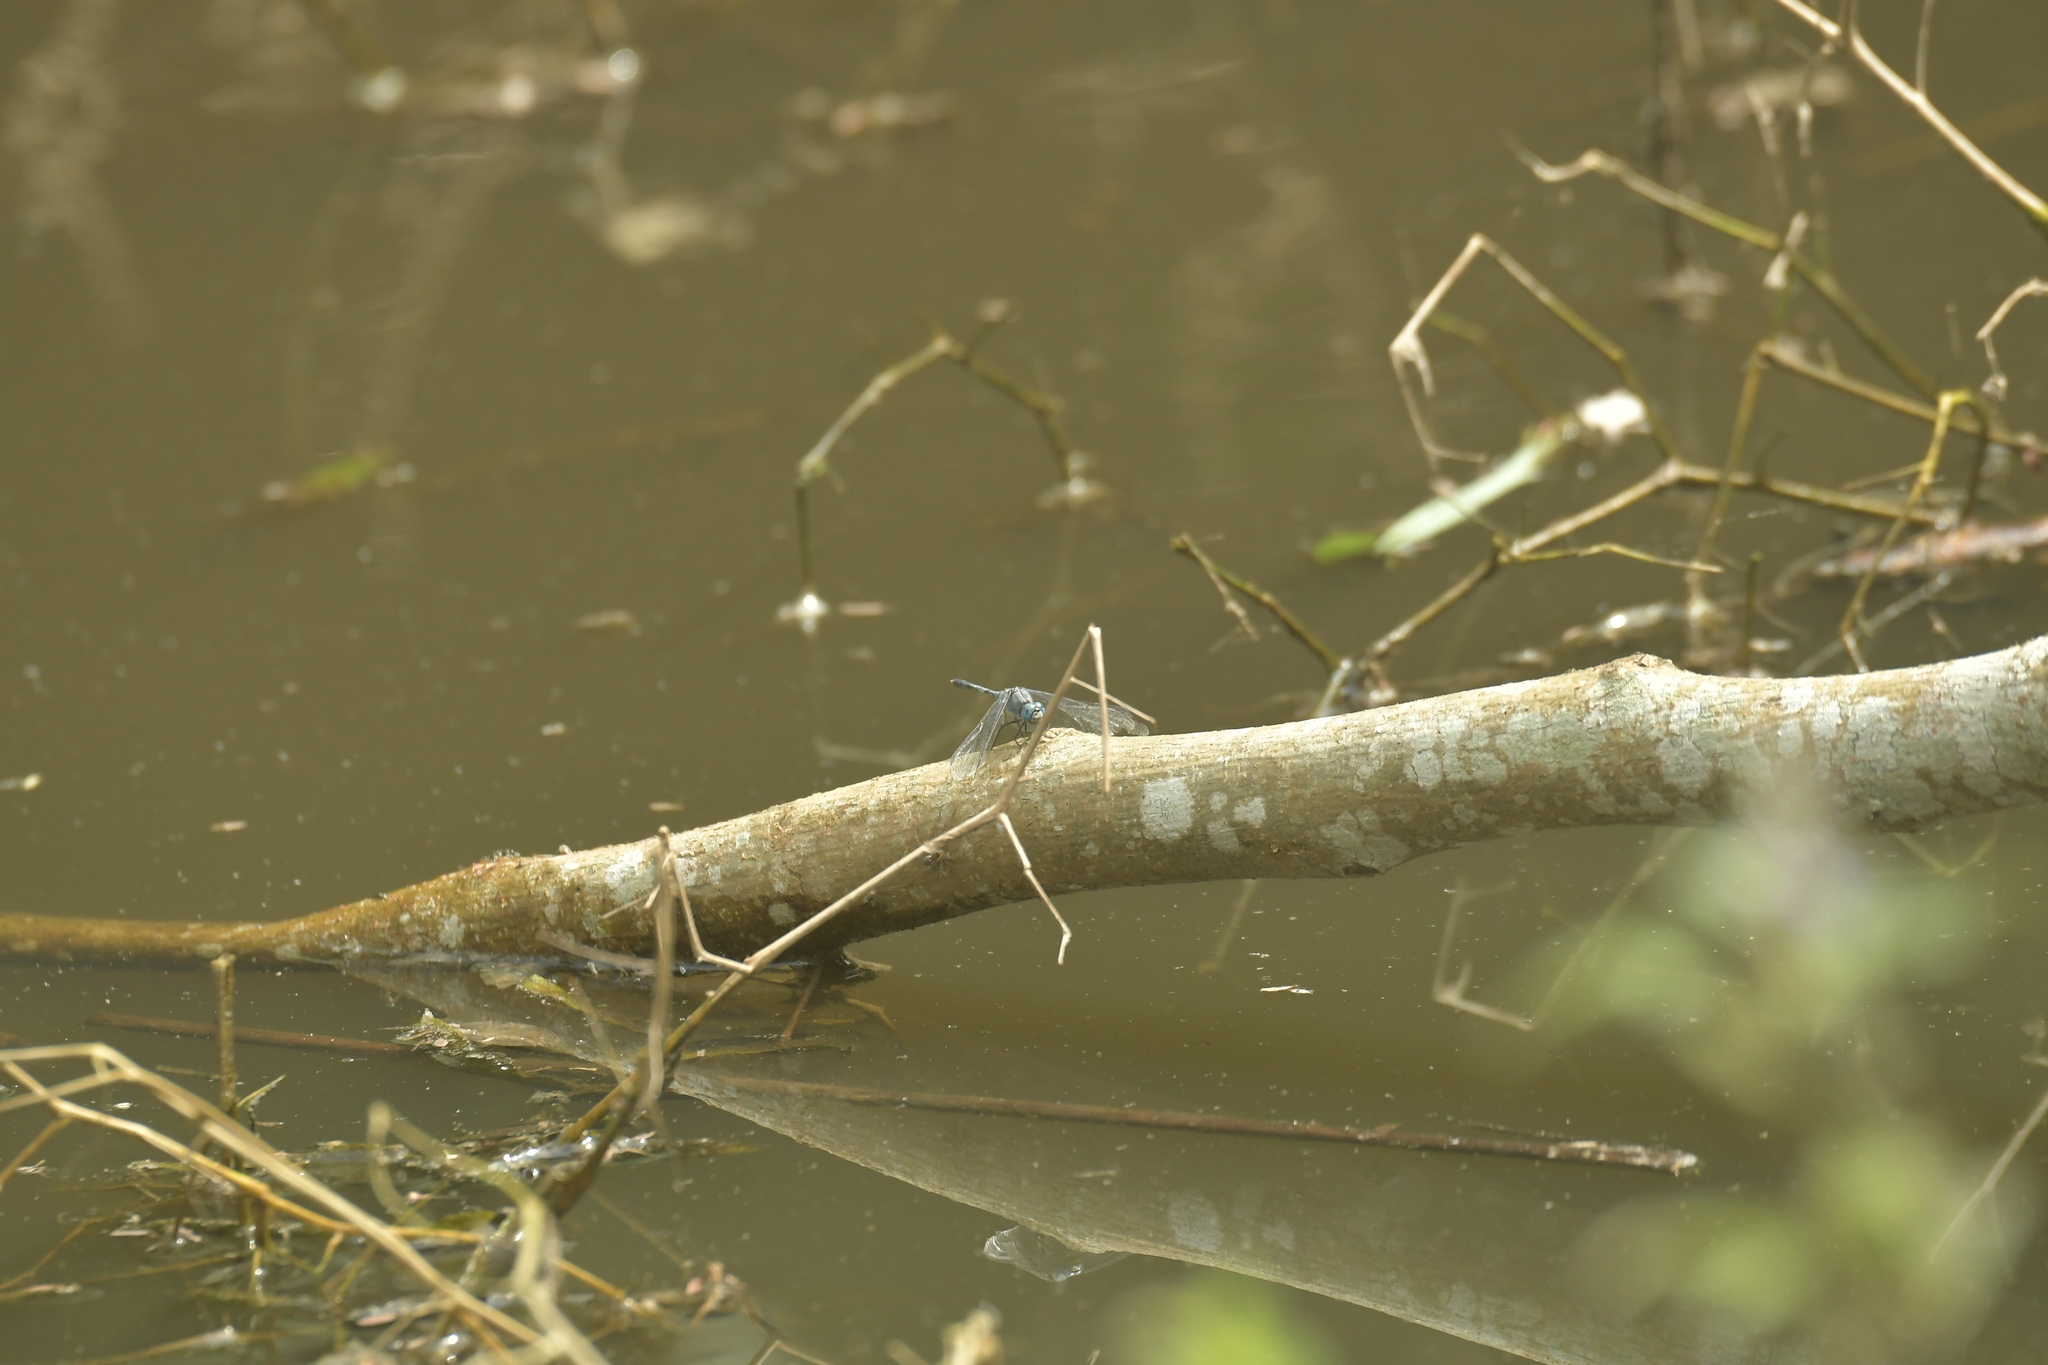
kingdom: Animalia
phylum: Arthropoda
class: Insecta
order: Odonata
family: Libellulidae
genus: Diplacodes
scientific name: Diplacodes trivialis
